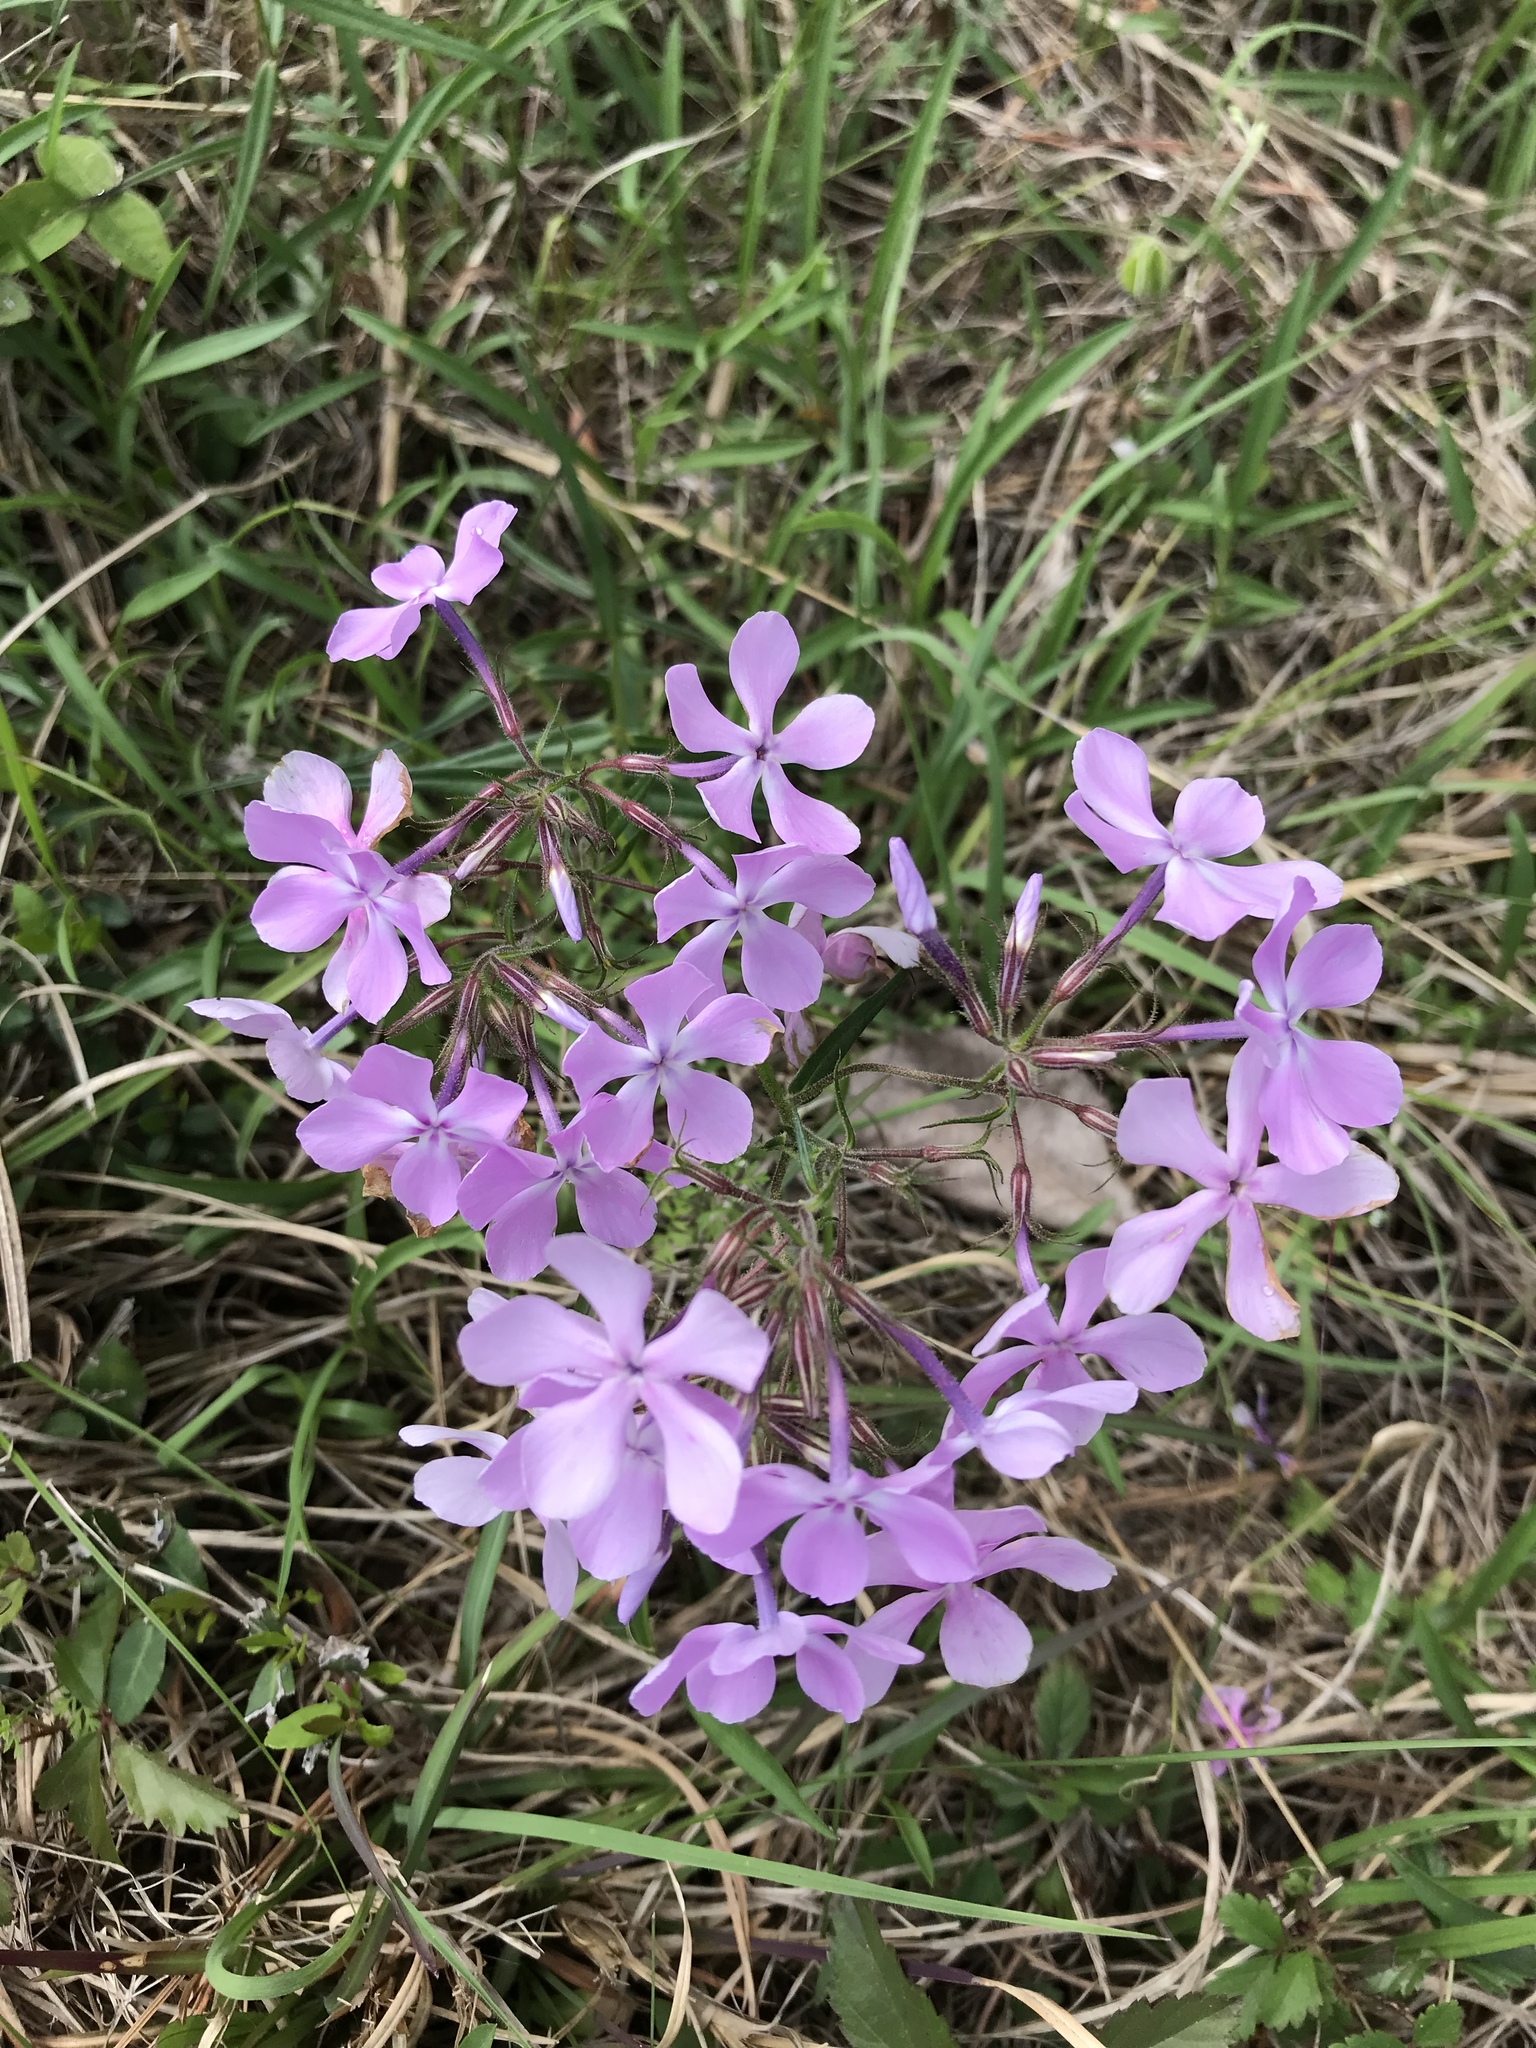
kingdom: Plantae
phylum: Tracheophyta
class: Magnoliopsida
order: Ericales
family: Polemoniaceae
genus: Phlox
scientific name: Phlox pilosa
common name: Prairie phlox
